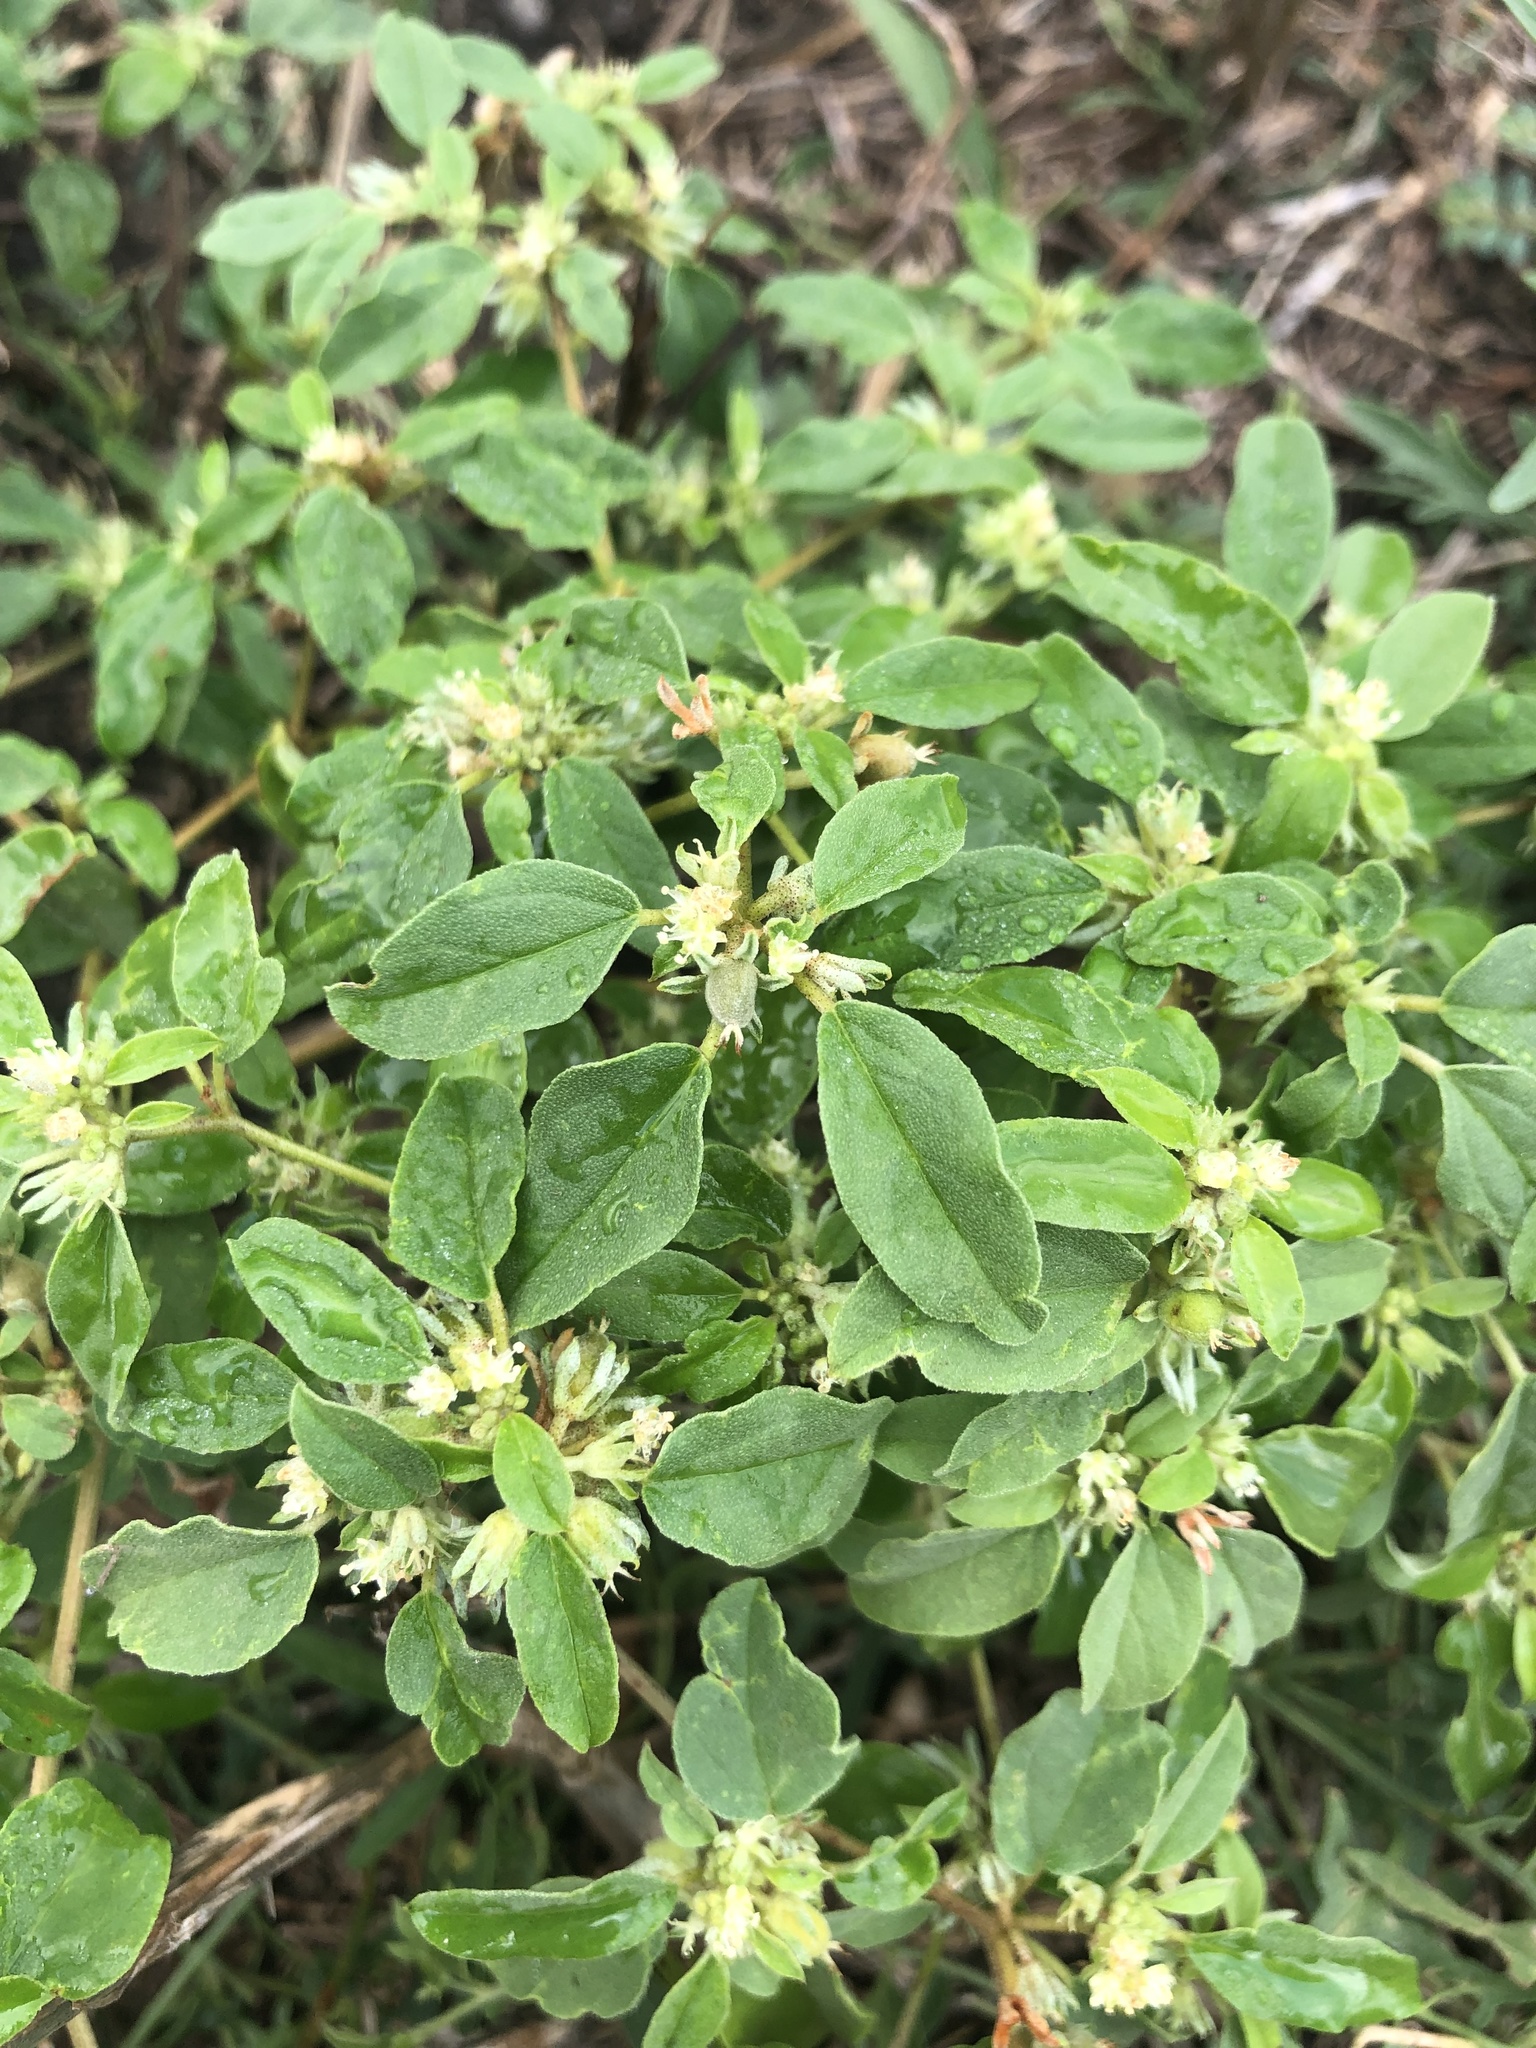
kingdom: Plantae
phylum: Tracheophyta
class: Magnoliopsida
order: Malpighiales
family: Euphorbiaceae
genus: Croton
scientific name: Croton monanthogynus
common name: One-seed croton
